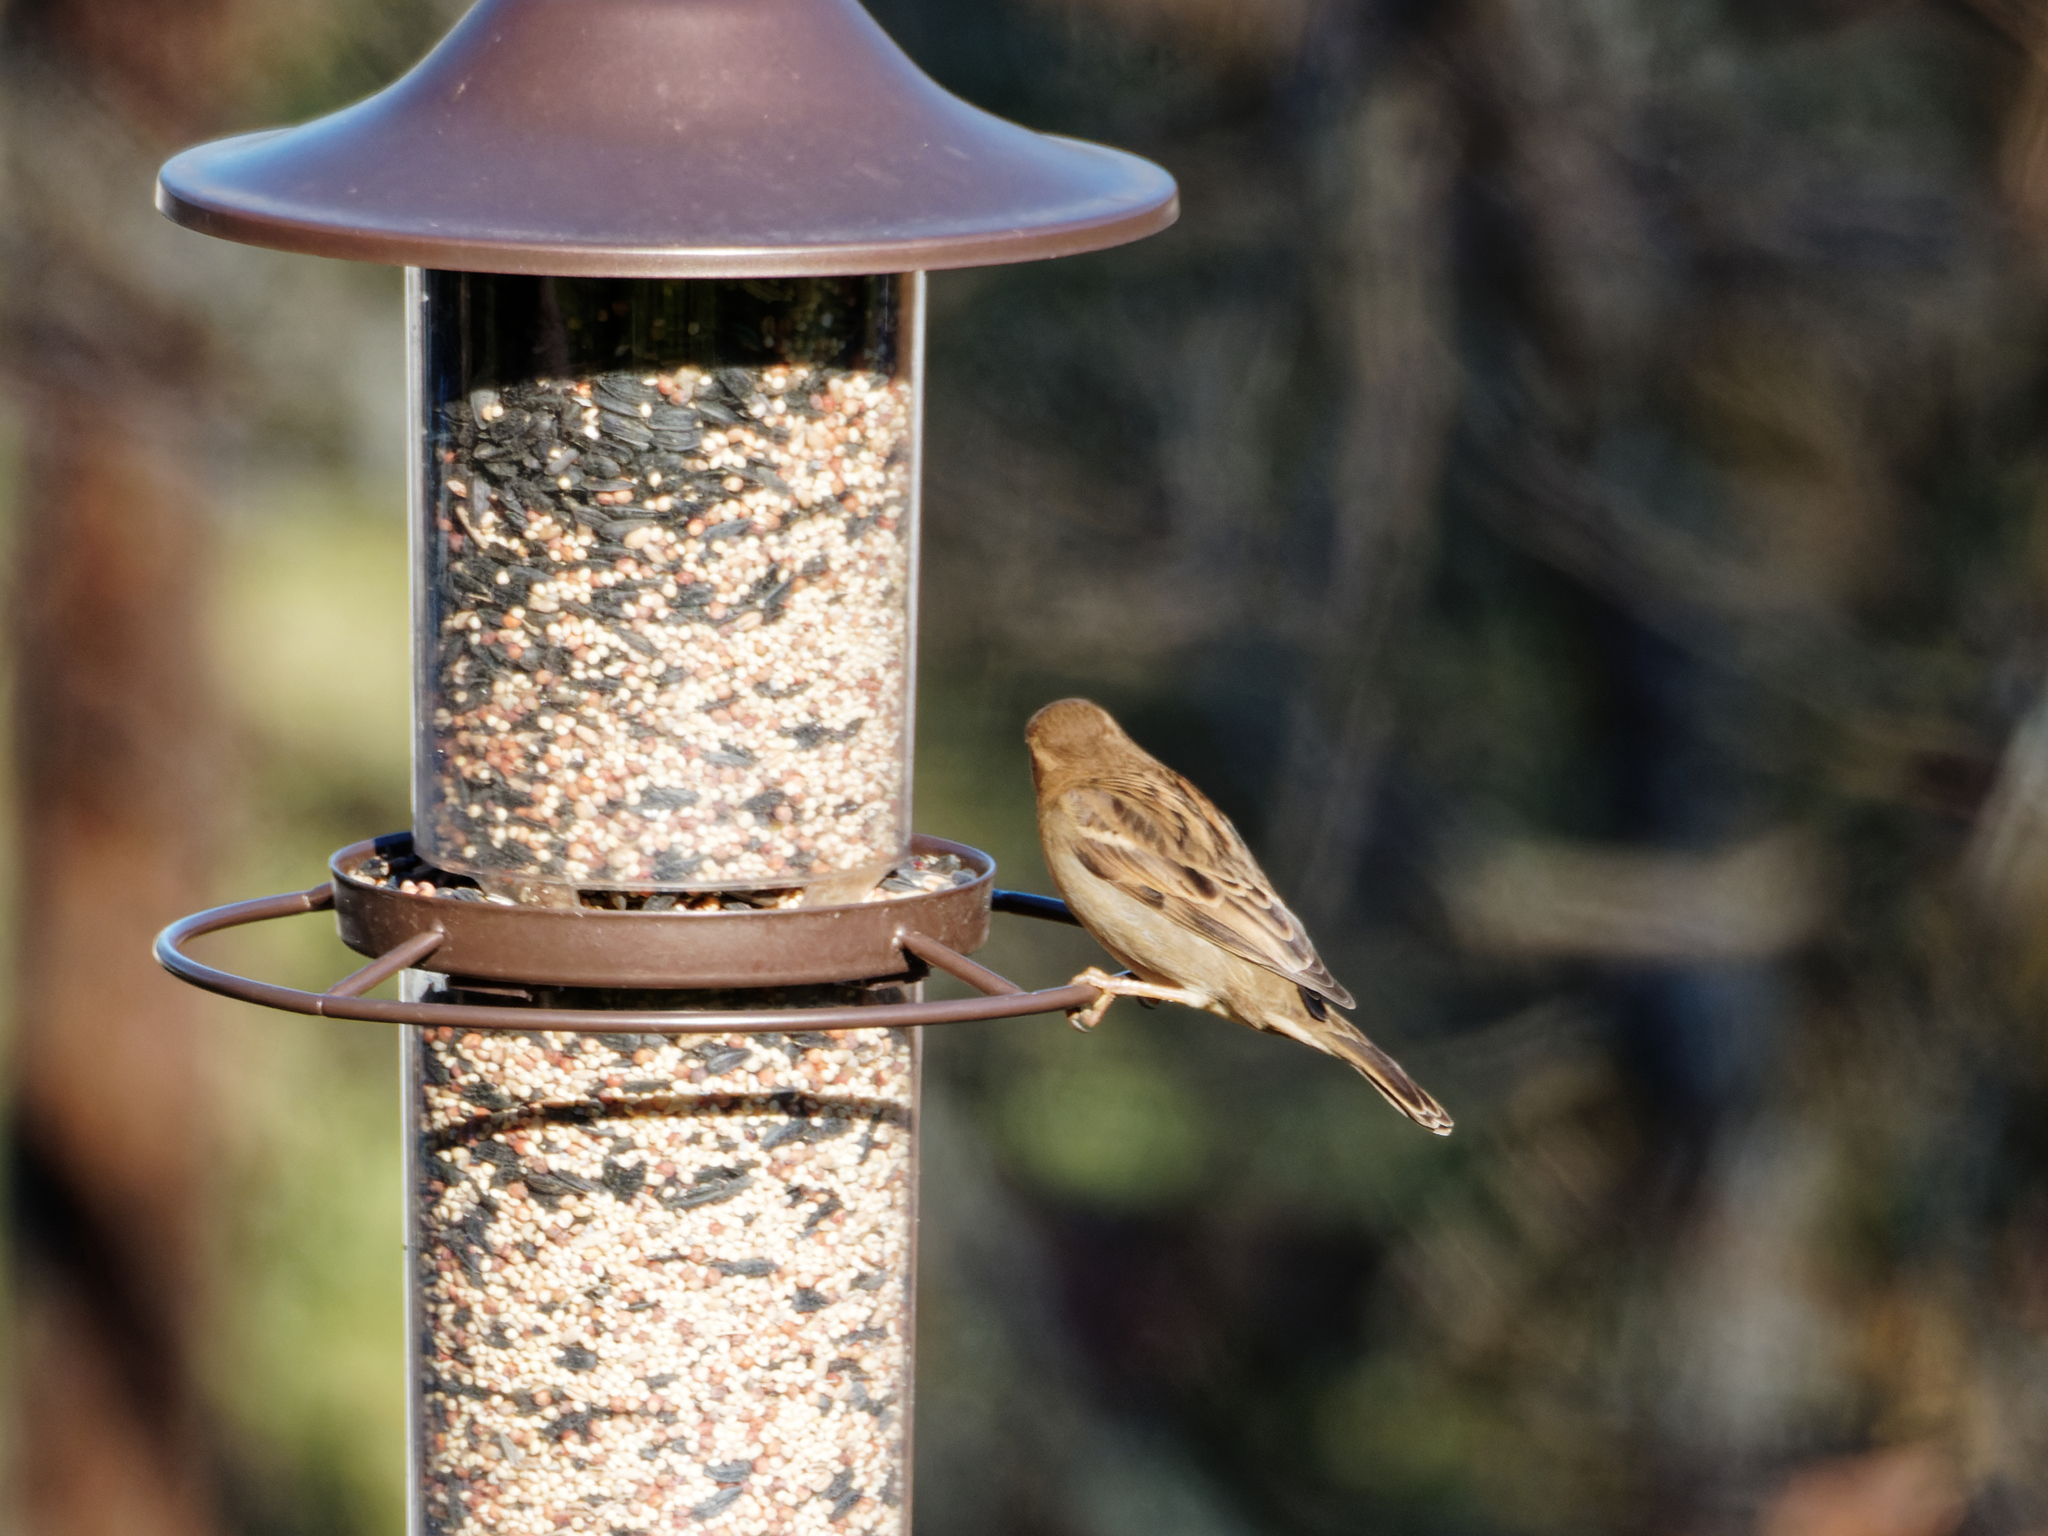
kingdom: Animalia
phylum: Chordata
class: Aves
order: Passeriformes
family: Passeridae
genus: Passer
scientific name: Passer domesticus
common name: House sparrow
